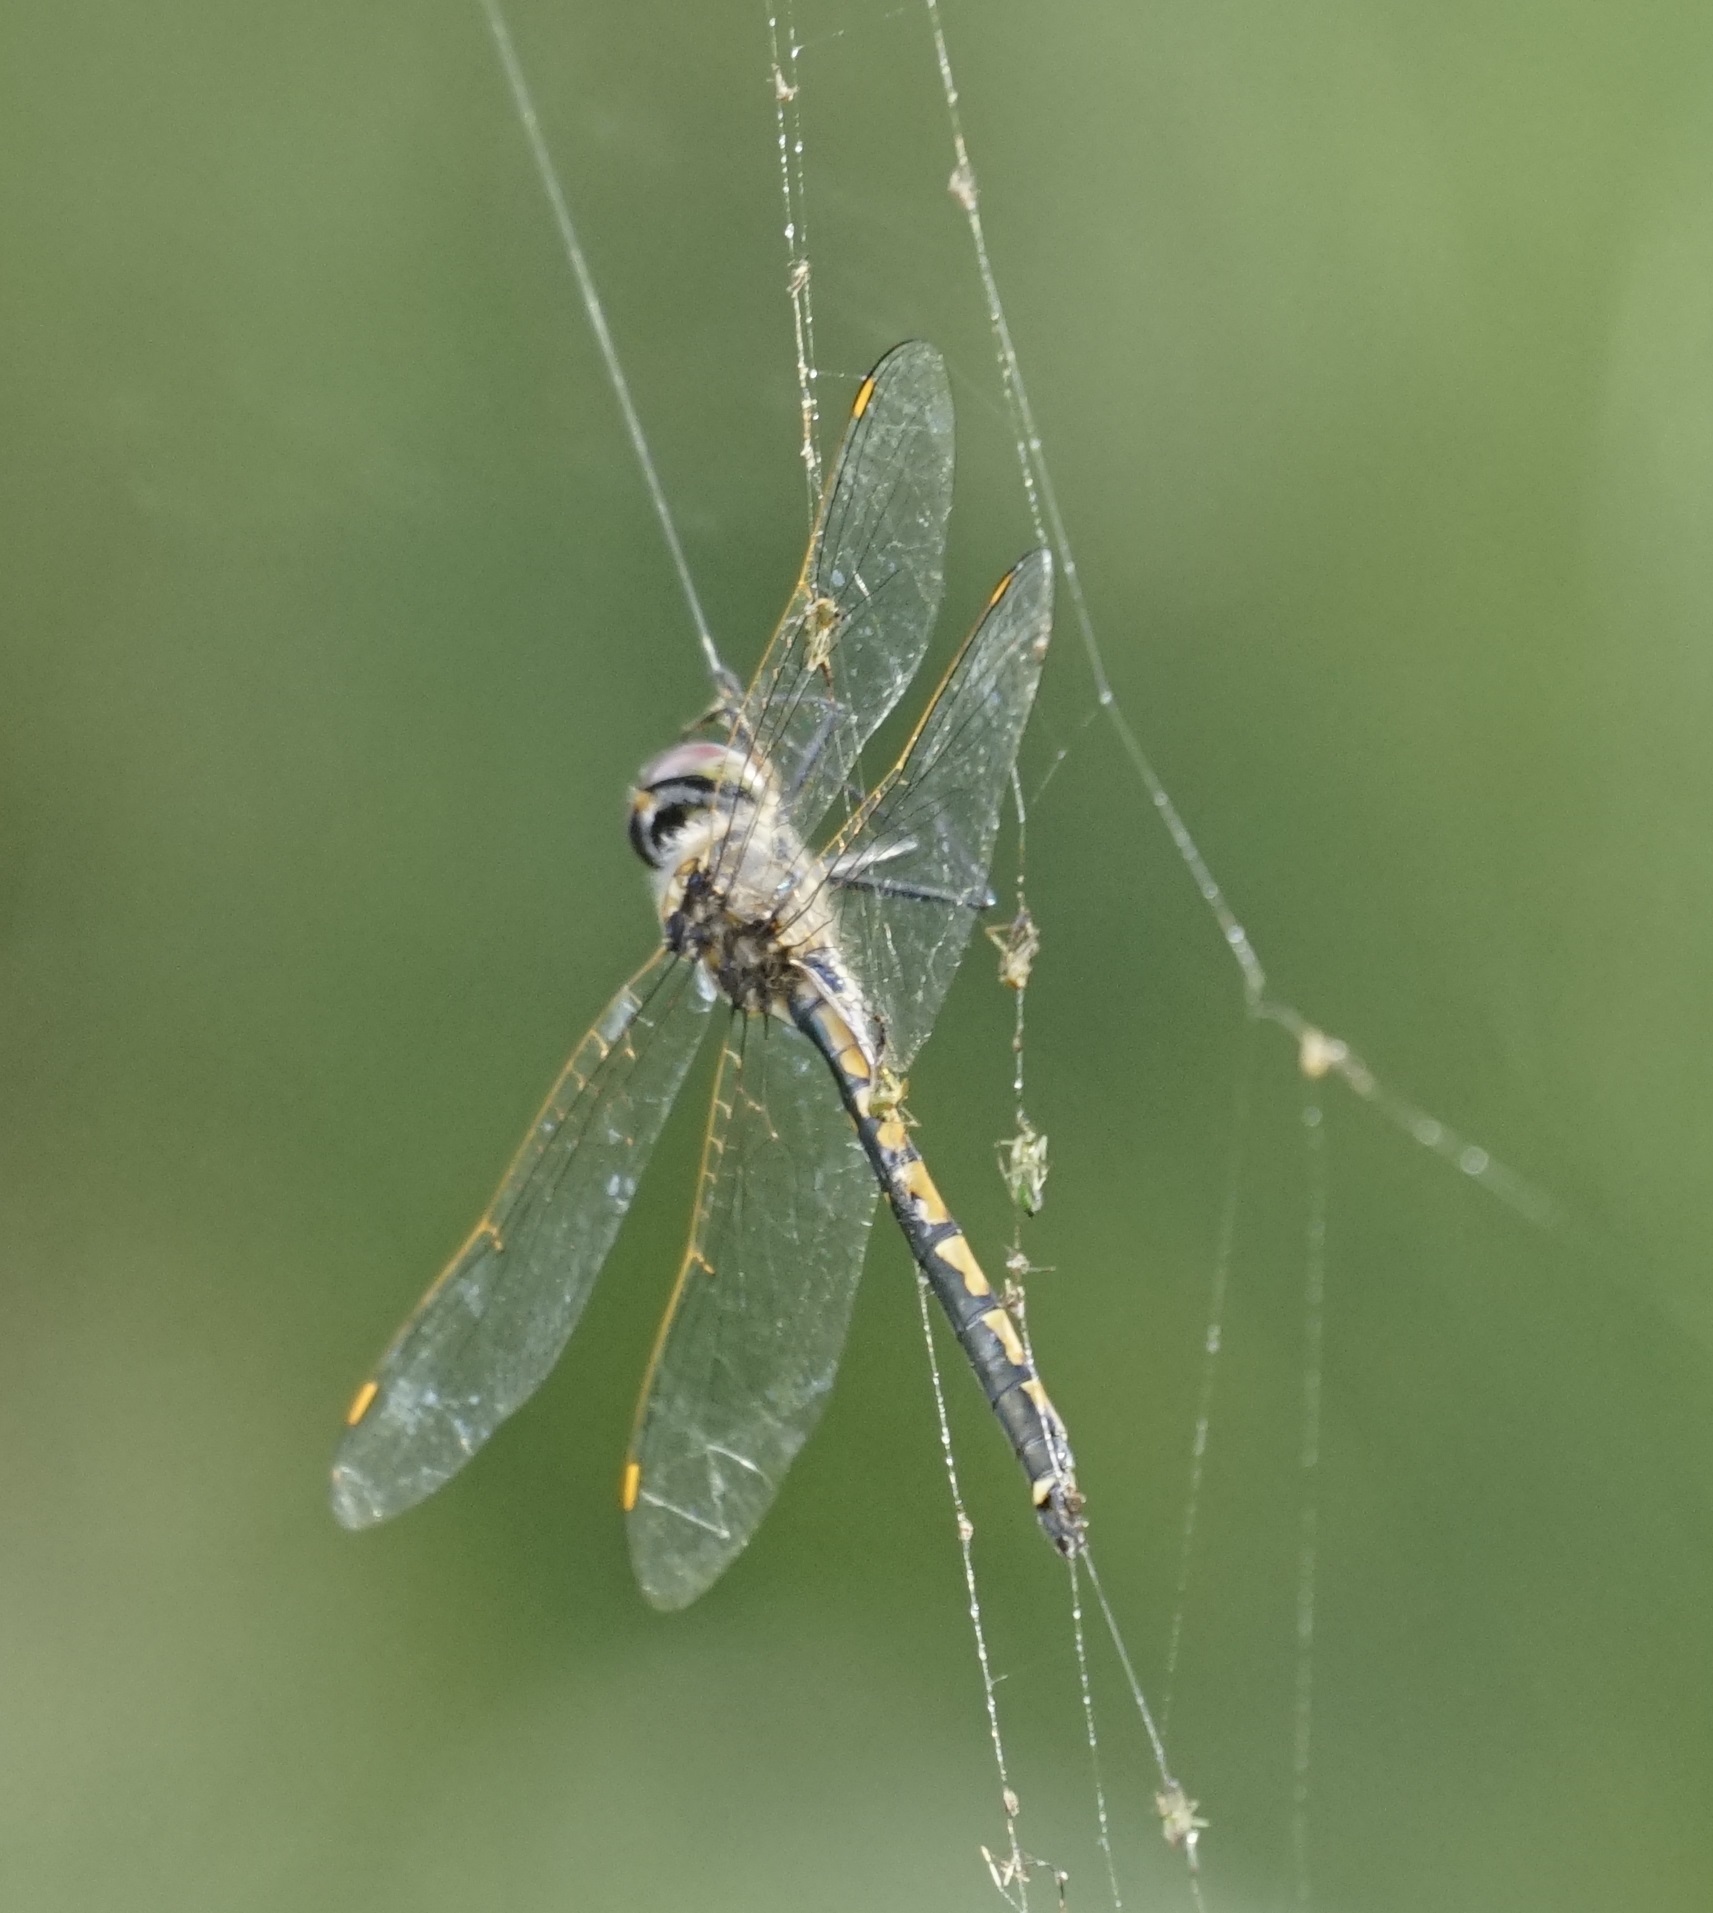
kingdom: Animalia
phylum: Arthropoda
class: Insecta
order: Odonata
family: Corduliidae
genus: Hemicordulia
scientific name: Hemicordulia tau
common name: Tau emerald
